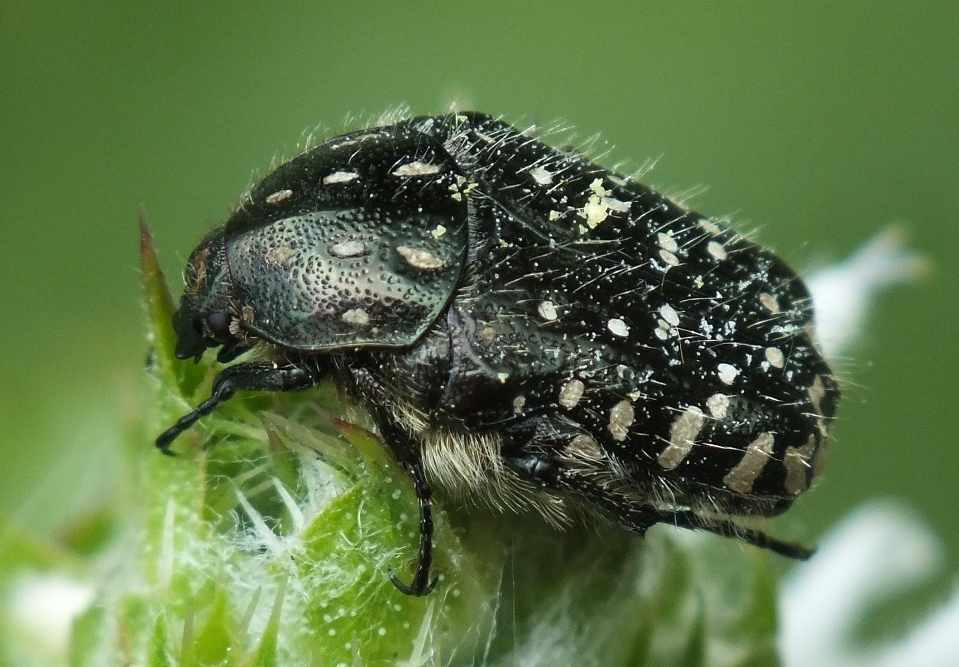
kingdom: Animalia
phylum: Arthropoda
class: Insecta
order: Coleoptera
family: Scarabaeidae
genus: Oxythyrea
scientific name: Oxythyrea funesta
